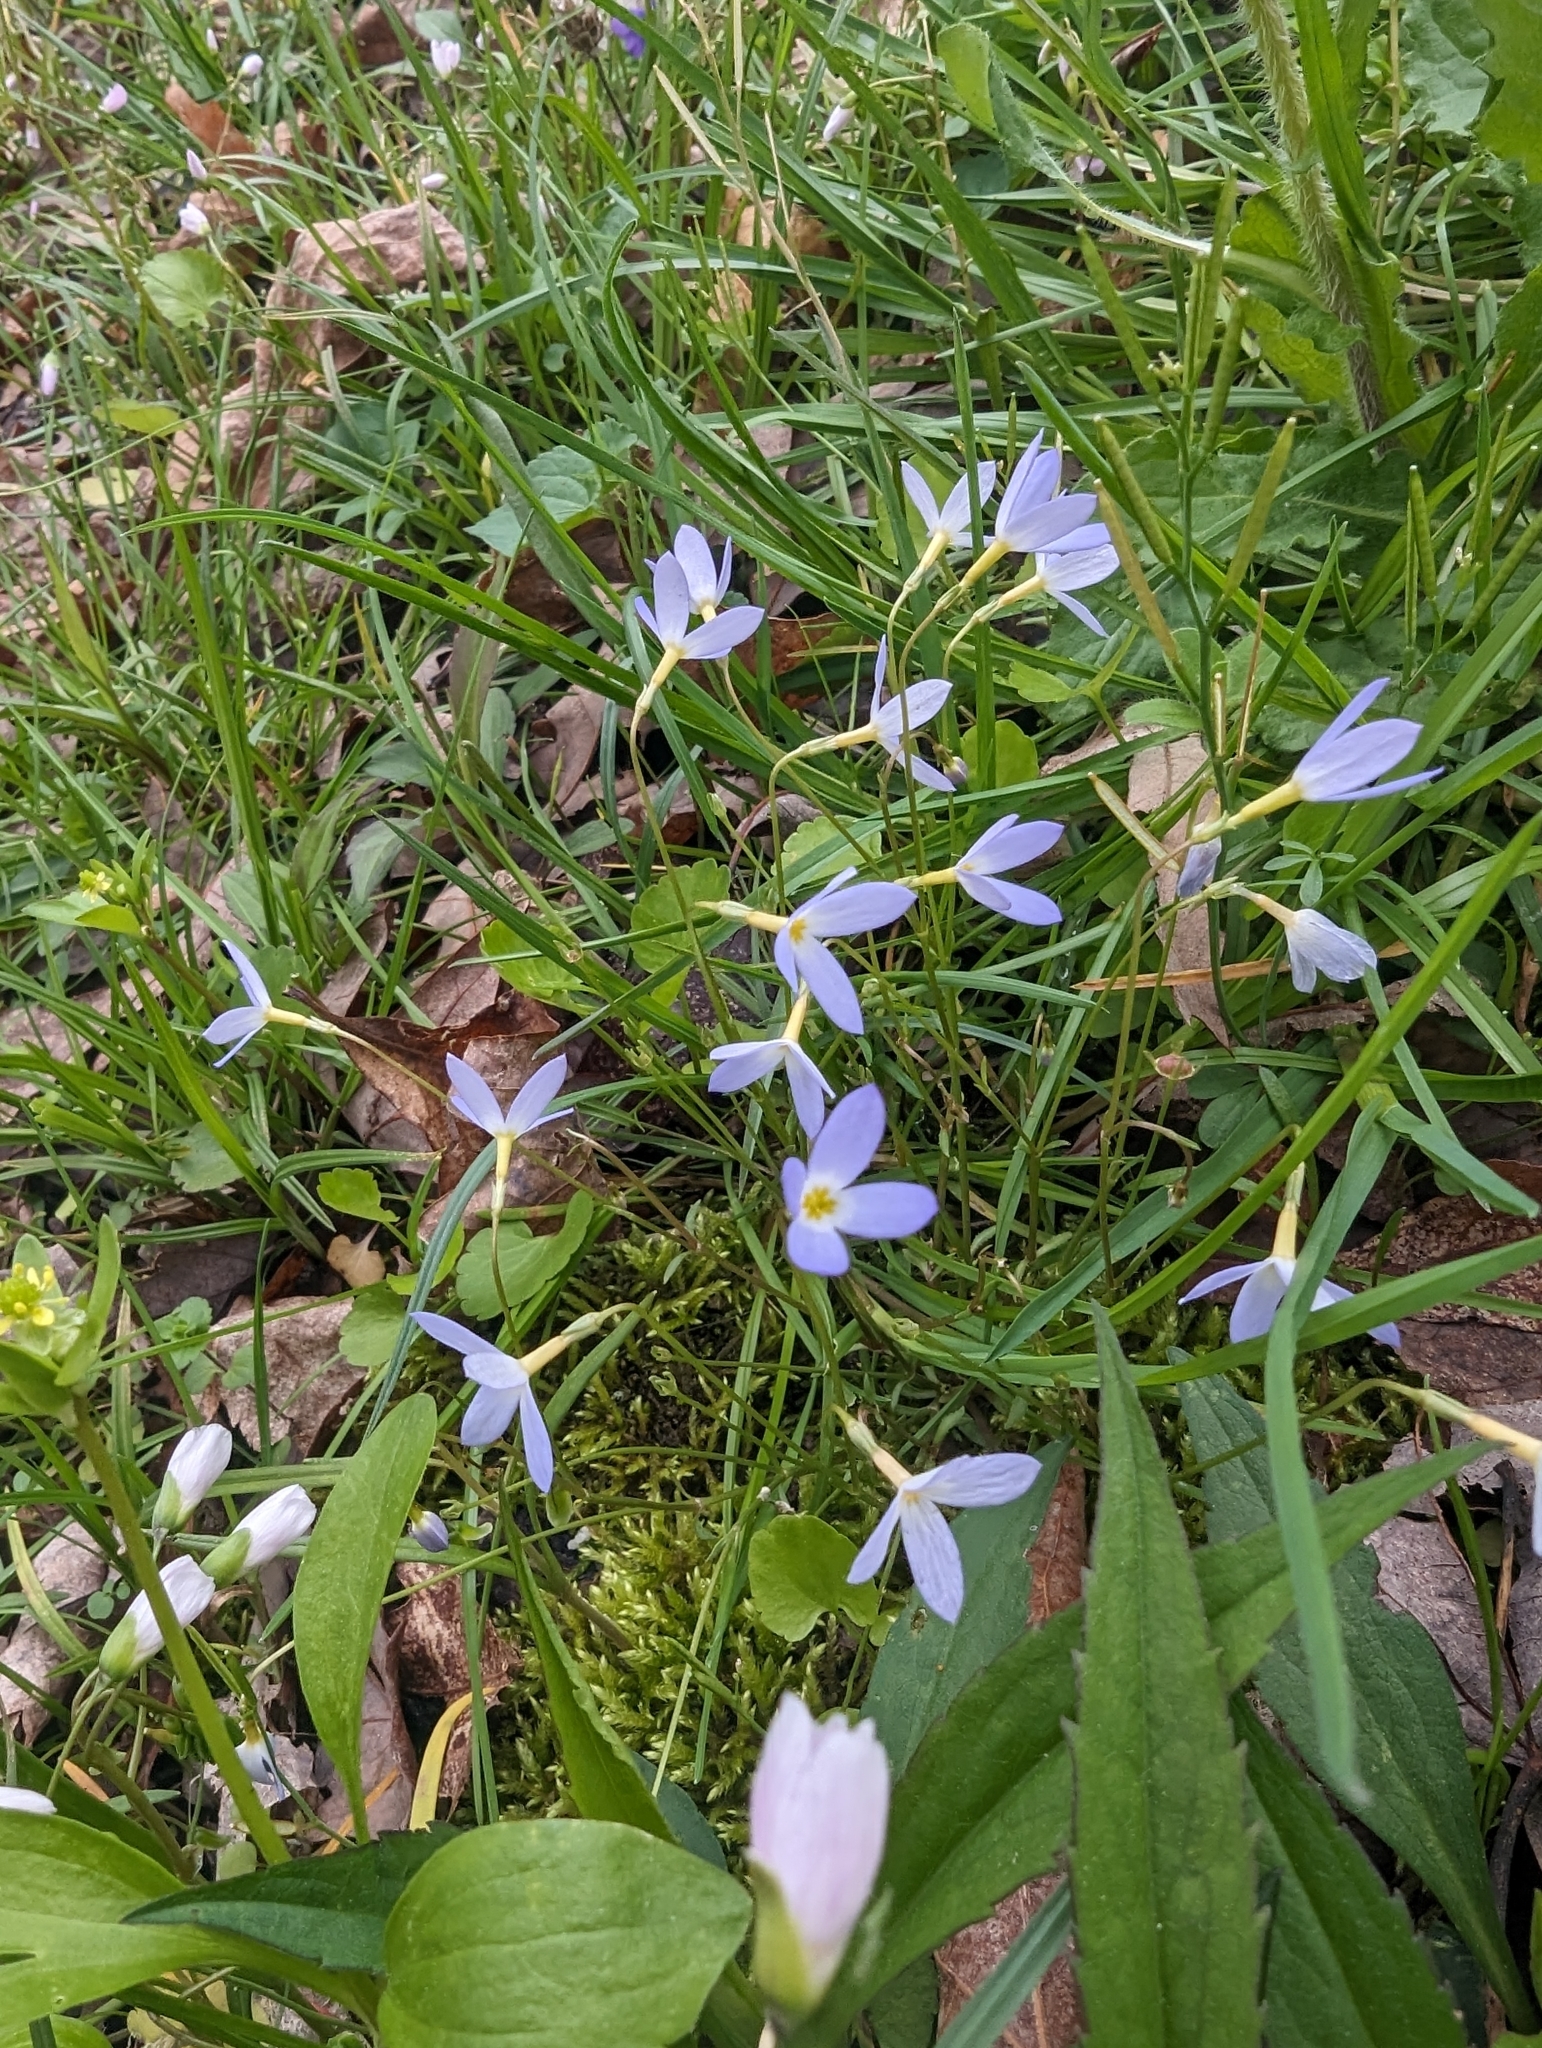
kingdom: Plantae
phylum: Tracheophyta
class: Magnoliopsida
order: Gentianales
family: Rubiaceae
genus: Houstonia
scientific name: Houstonia caerulea
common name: Bluets
